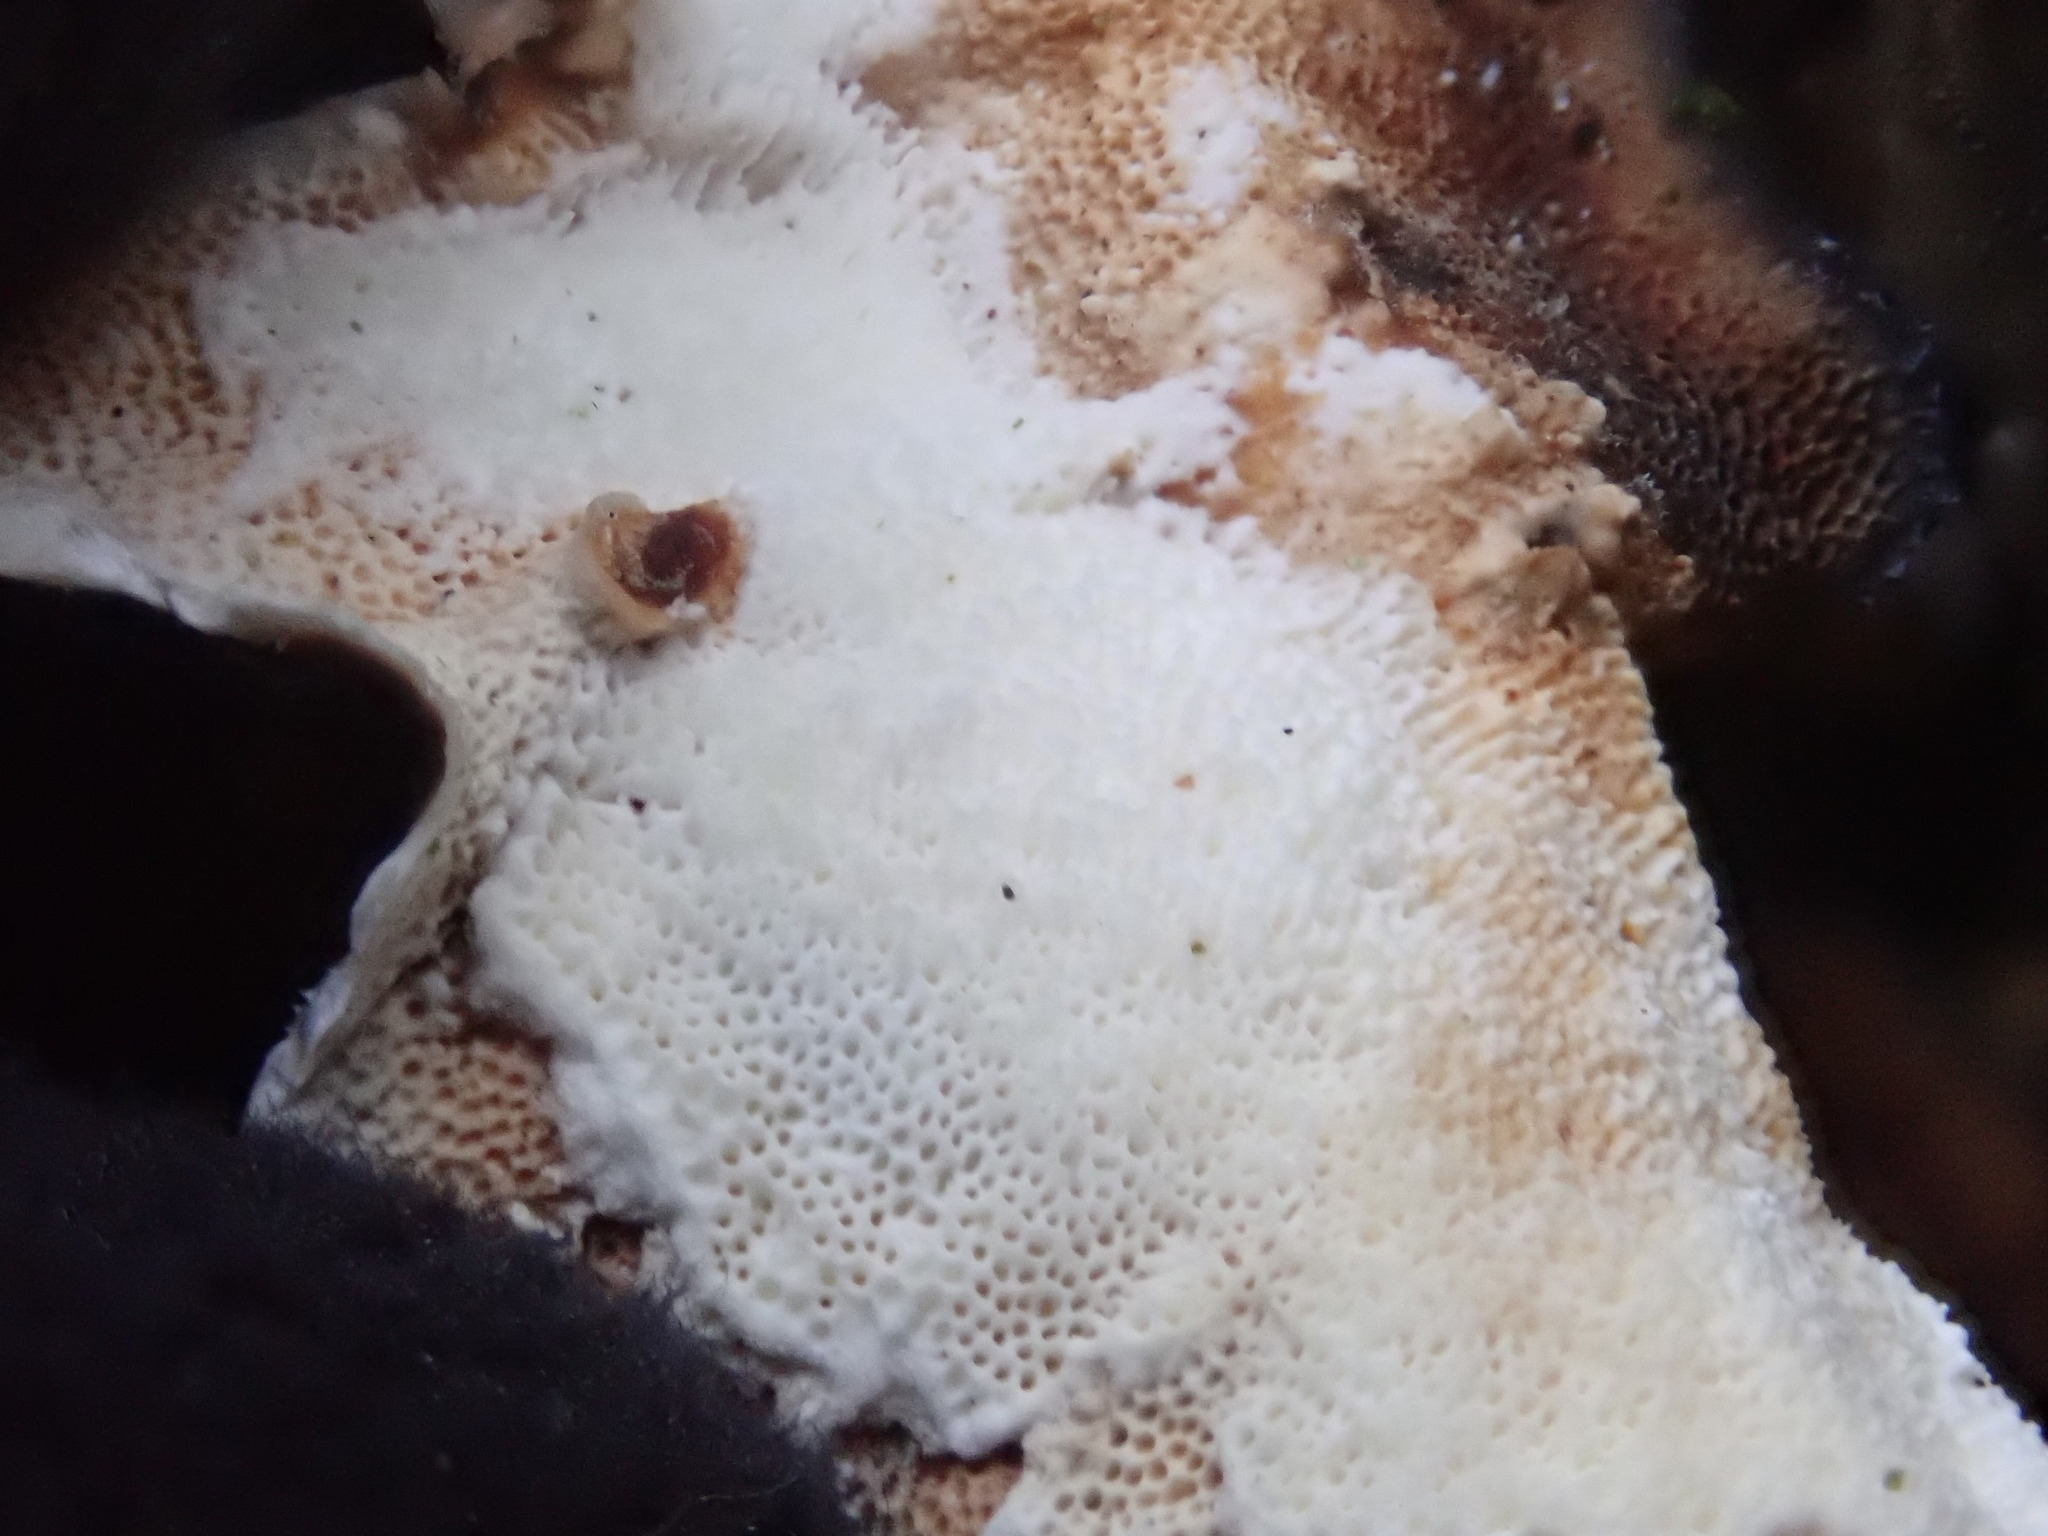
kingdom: Fungi
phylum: Basidiomycota
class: Agaricomycetes
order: Polyporales
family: Polyporaceae
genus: Trametes
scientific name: Trametes versicolor
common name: Turkeytail
